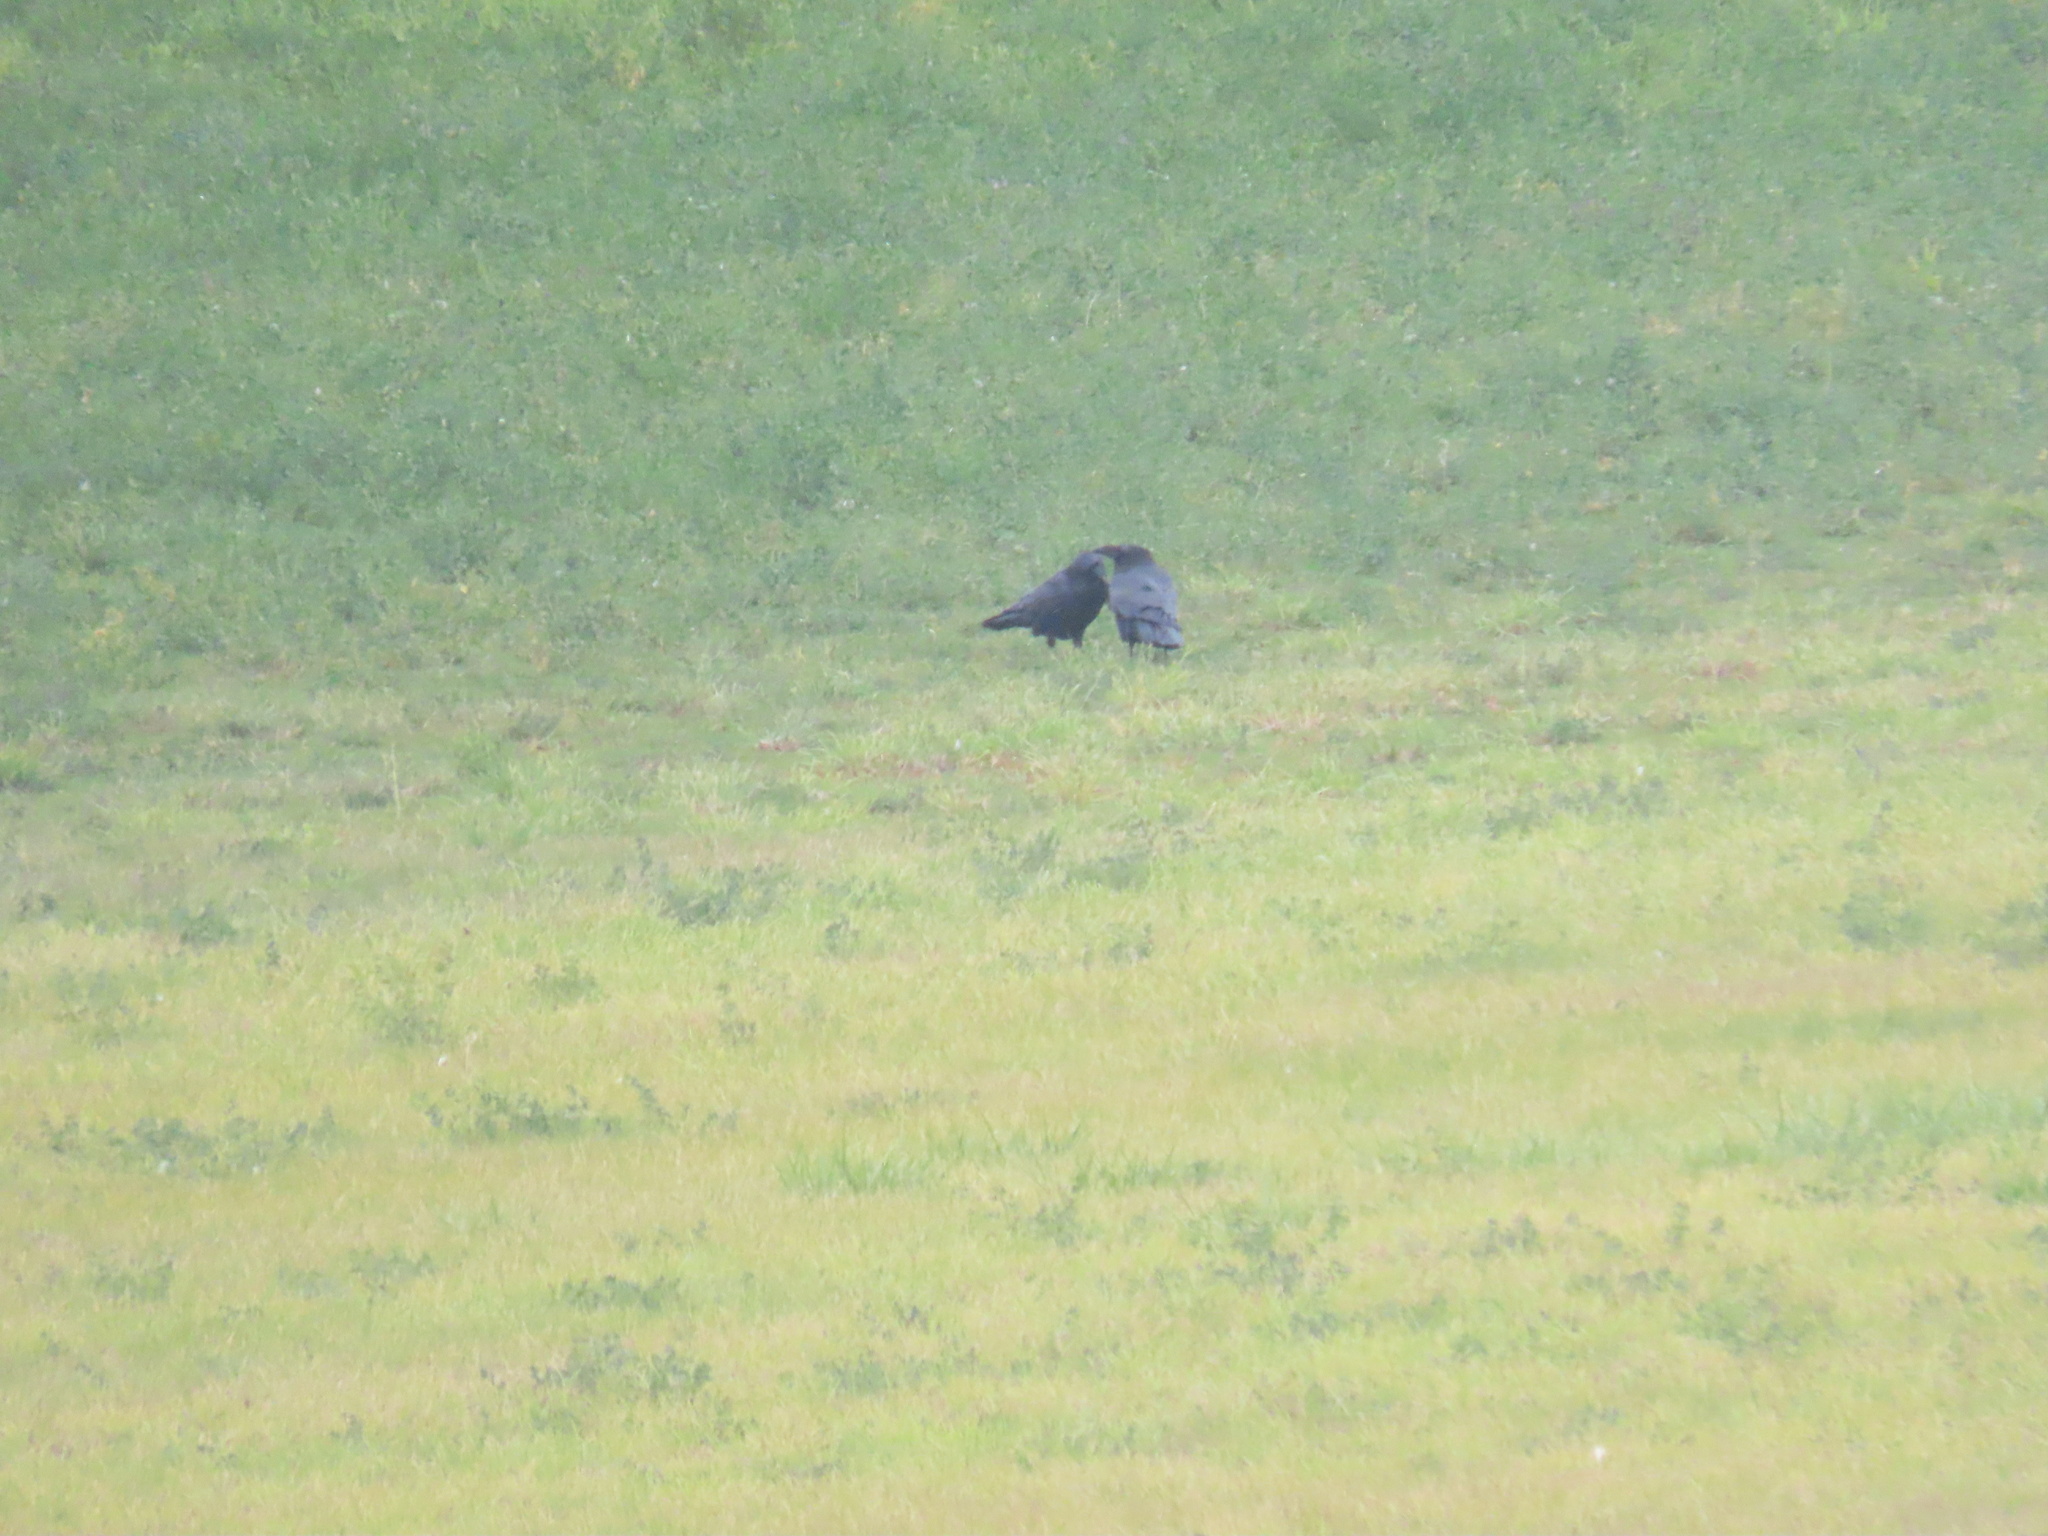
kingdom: Animalia
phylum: Chordata
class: Aves
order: Passeriformes
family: Corvidae
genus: Corvus
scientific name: Corvus corax
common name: Common raven
